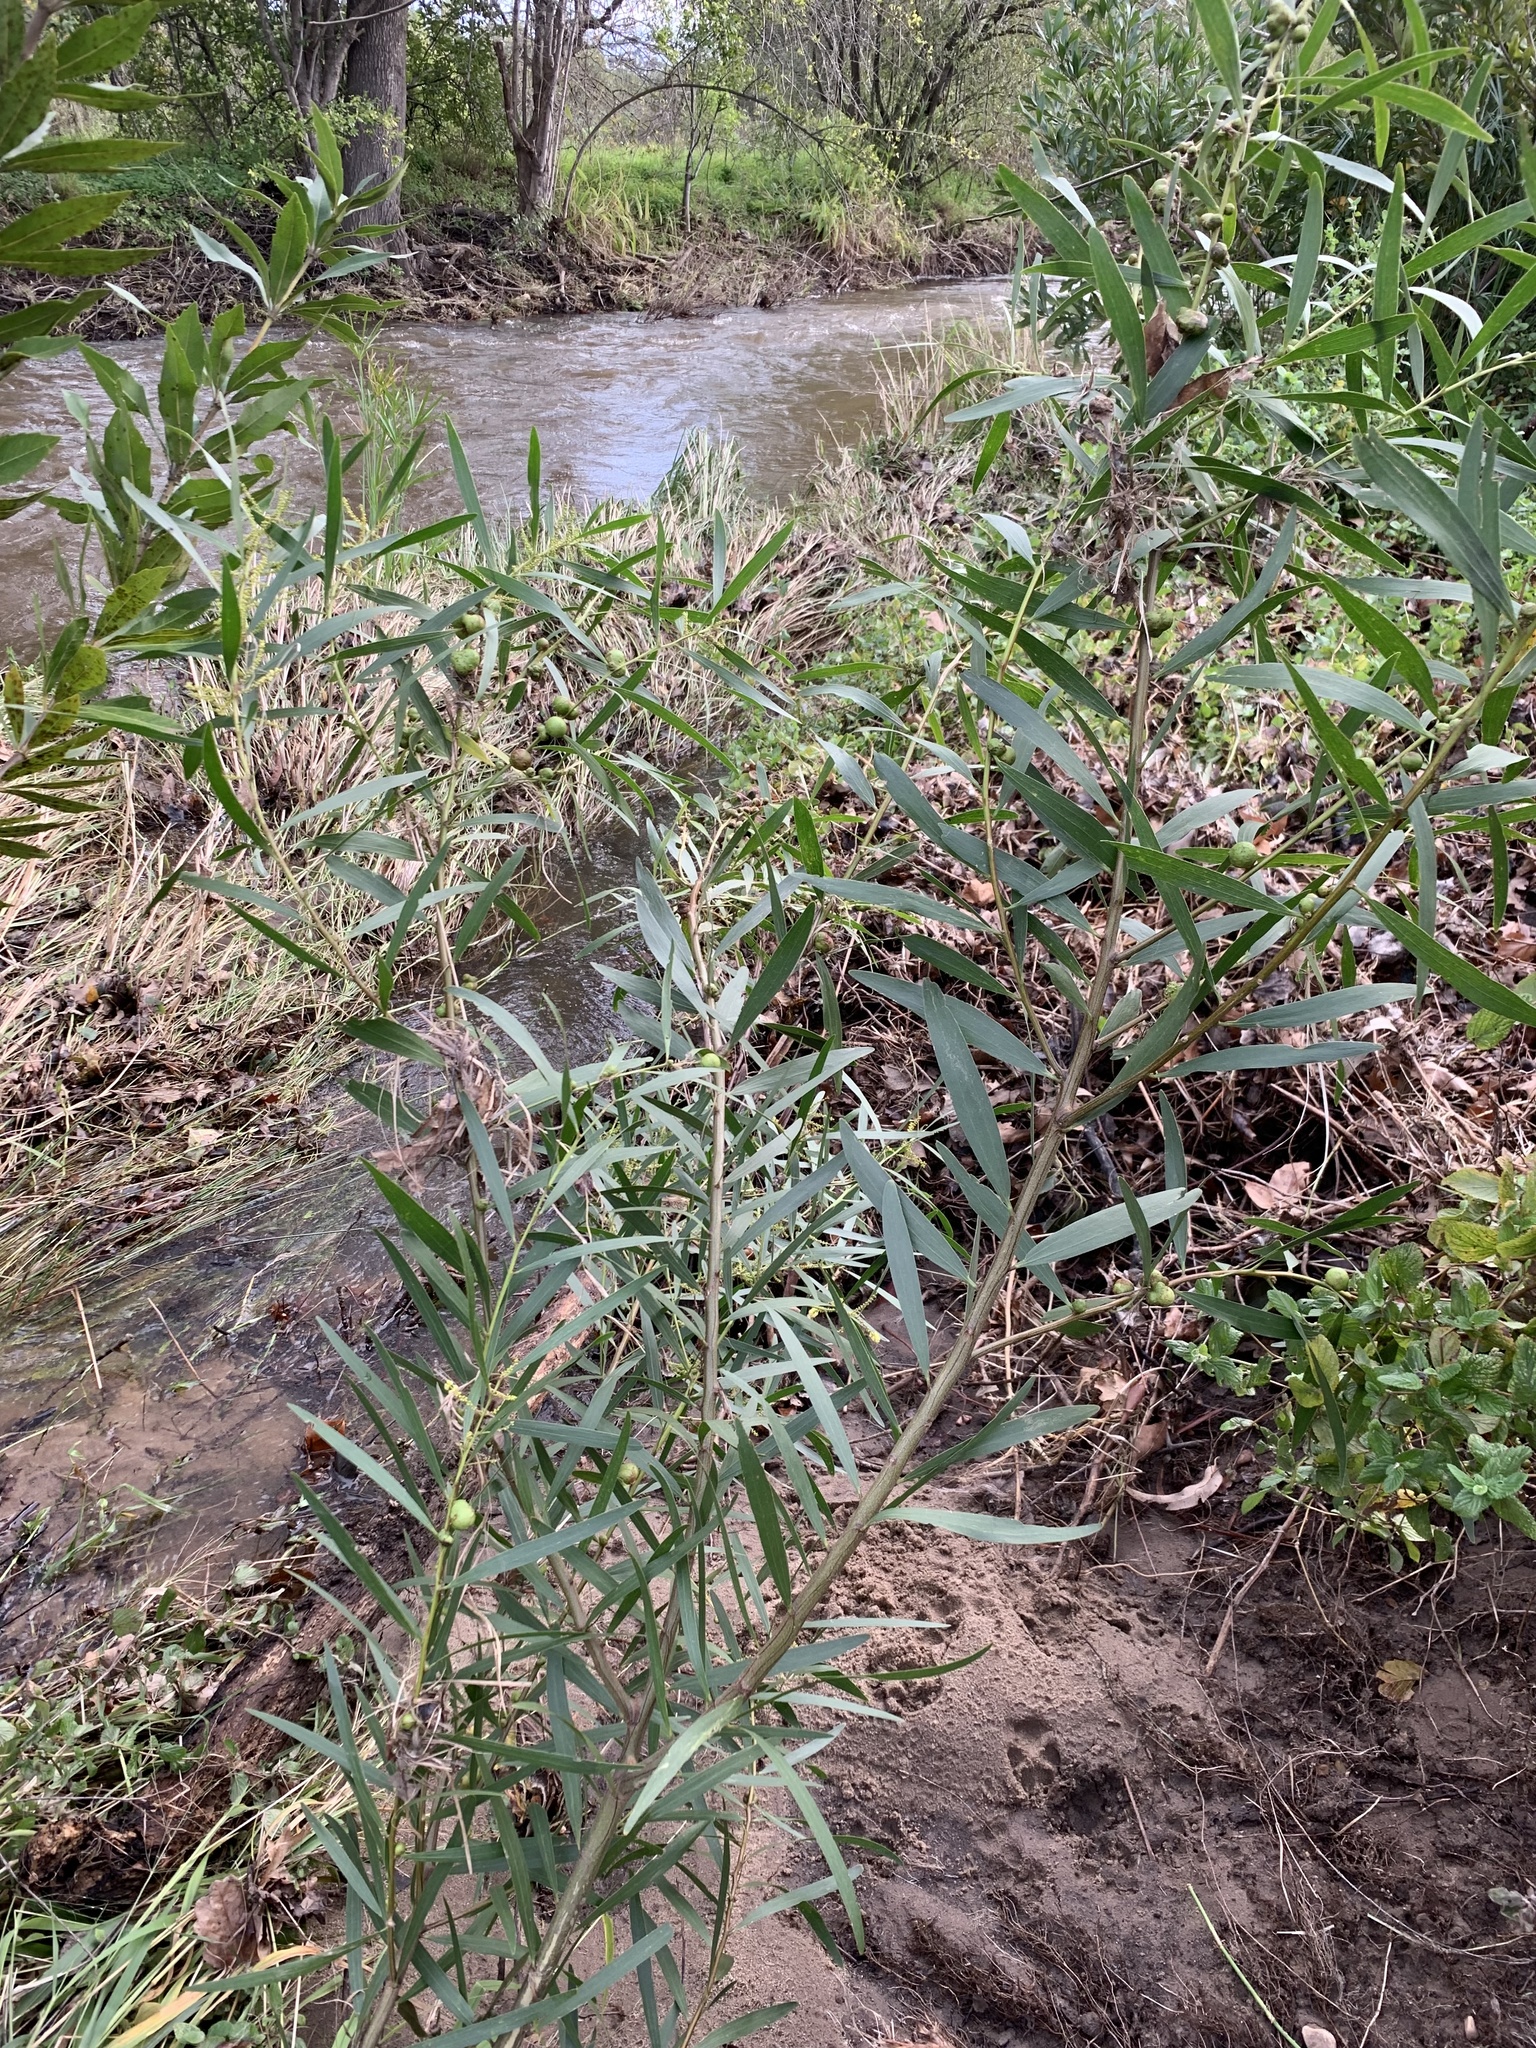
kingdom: Plantae
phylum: Tracheophyta
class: Magnoliopsida
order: Fabales
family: Fabaceae
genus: Acacia
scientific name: Acacia longifolia
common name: Sydney golden wattle
